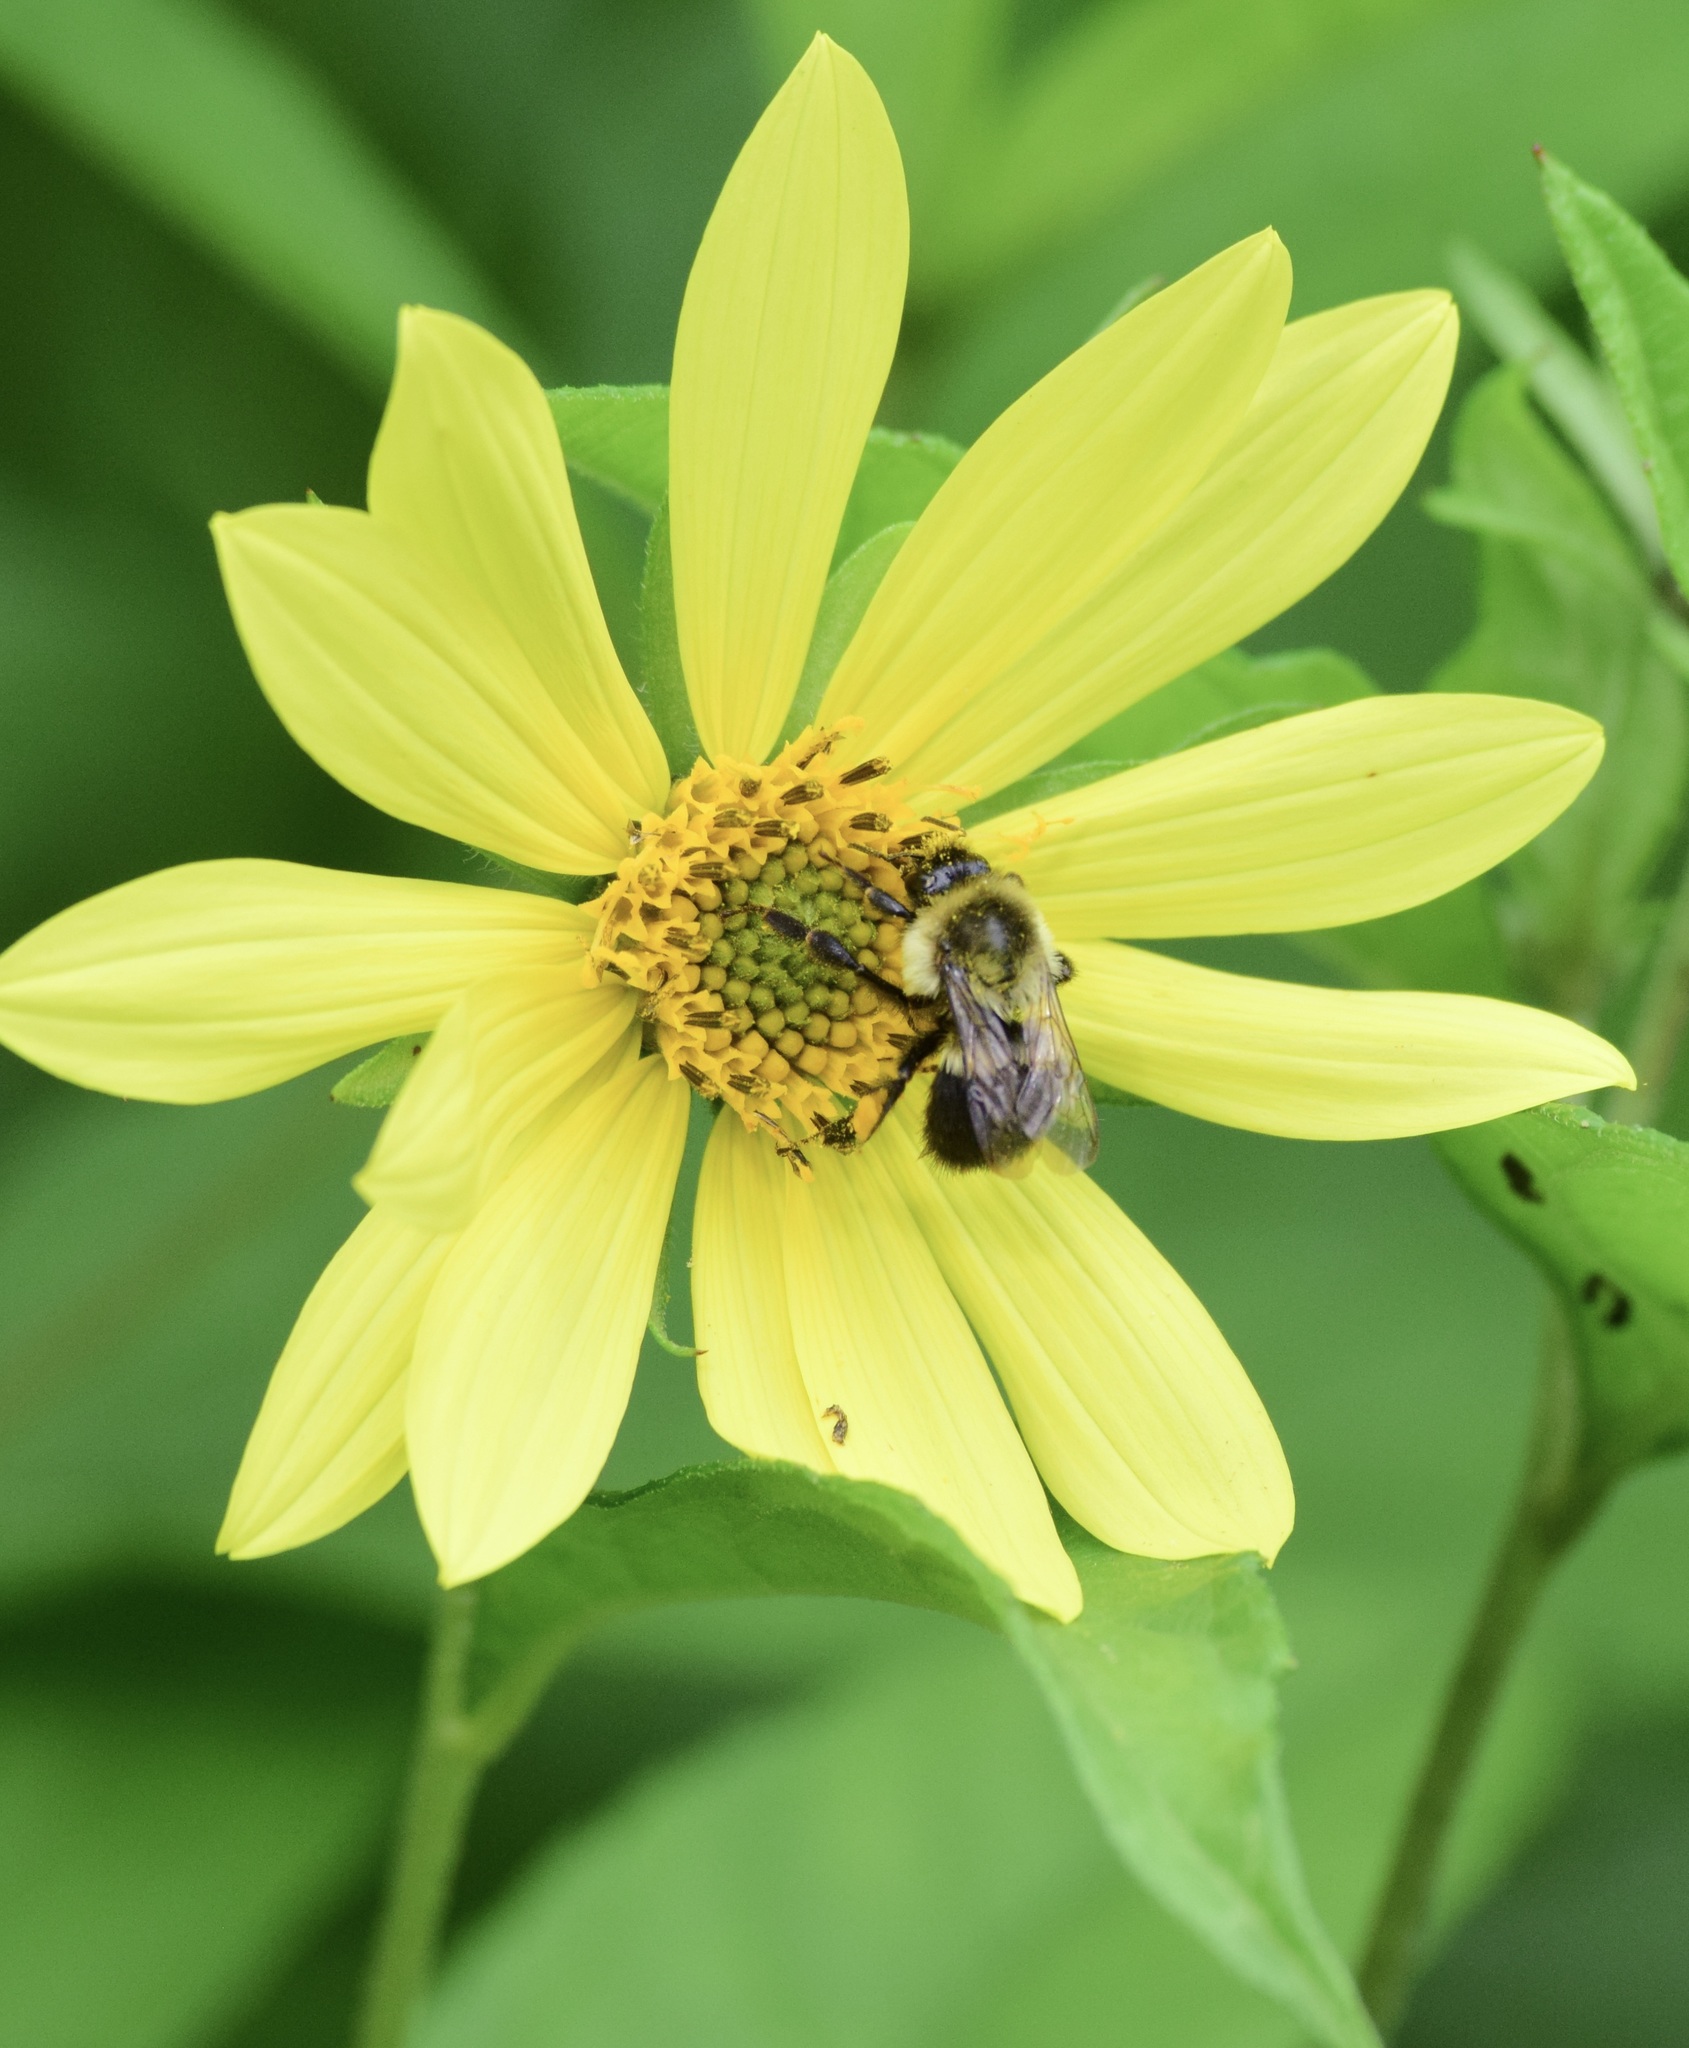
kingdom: Animalia
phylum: Arthropoda
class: Insecta
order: Hymenoptera
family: Apidae
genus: Bombus
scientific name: Bombus impatiens
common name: Common eastern bumble bee
